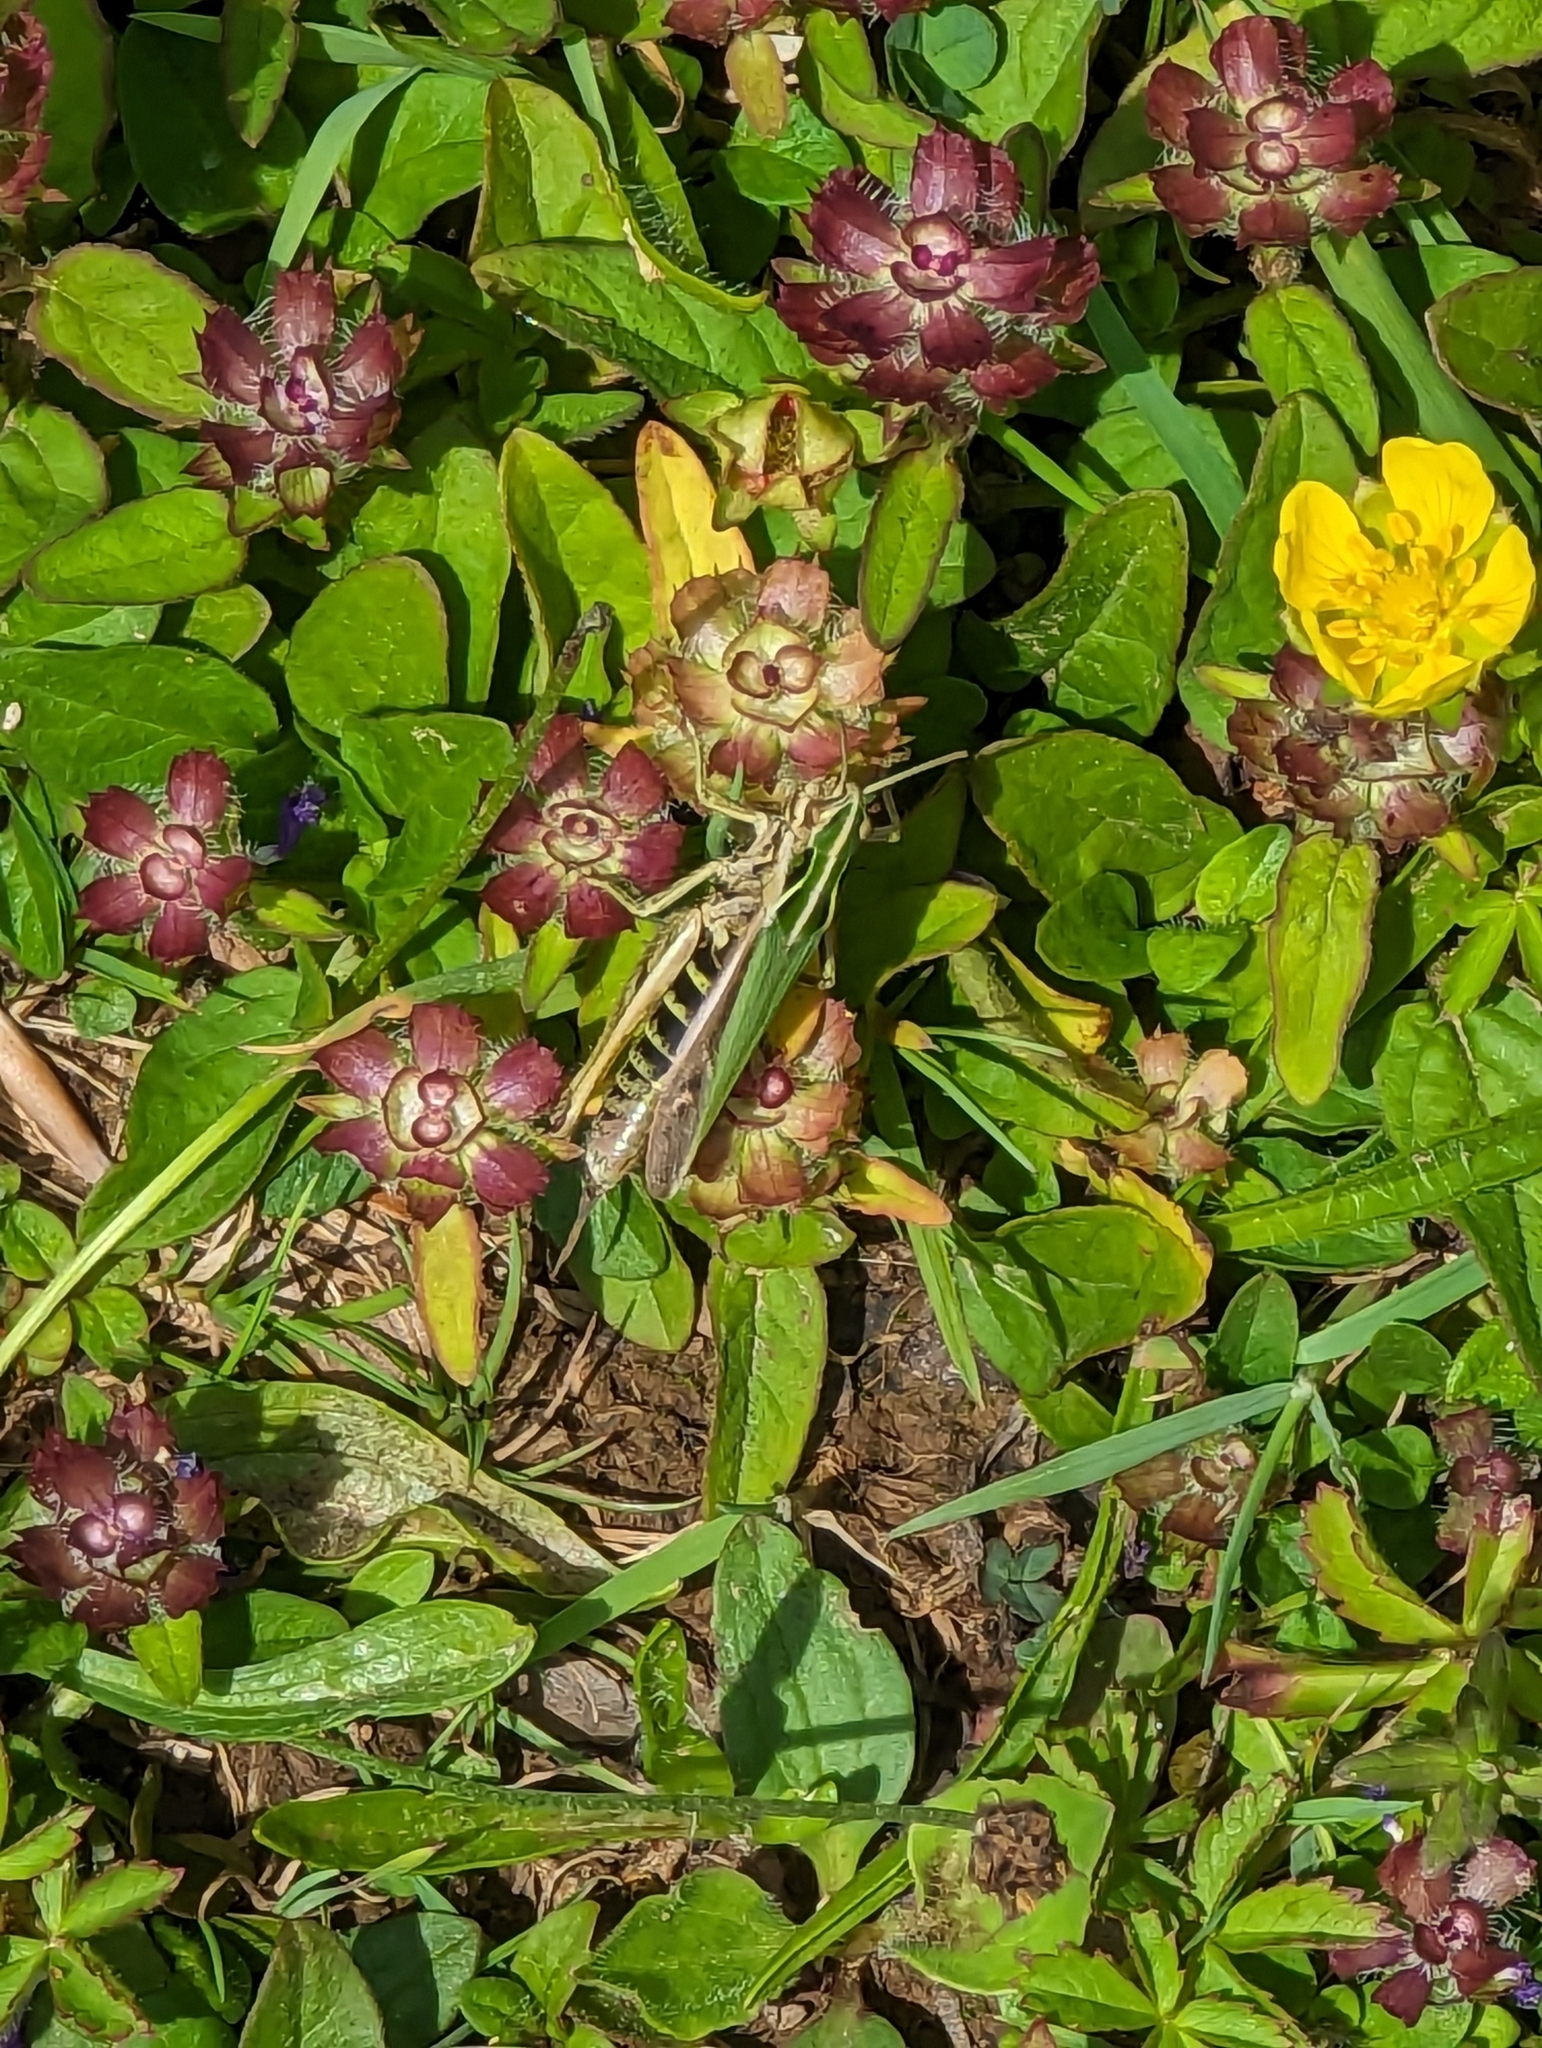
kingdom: Animalia
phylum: Arthropoda
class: Insecta
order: Orthoptera
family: Acrididae
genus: Omocestus
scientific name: Omocestus viridulus
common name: Common green grasshopper
